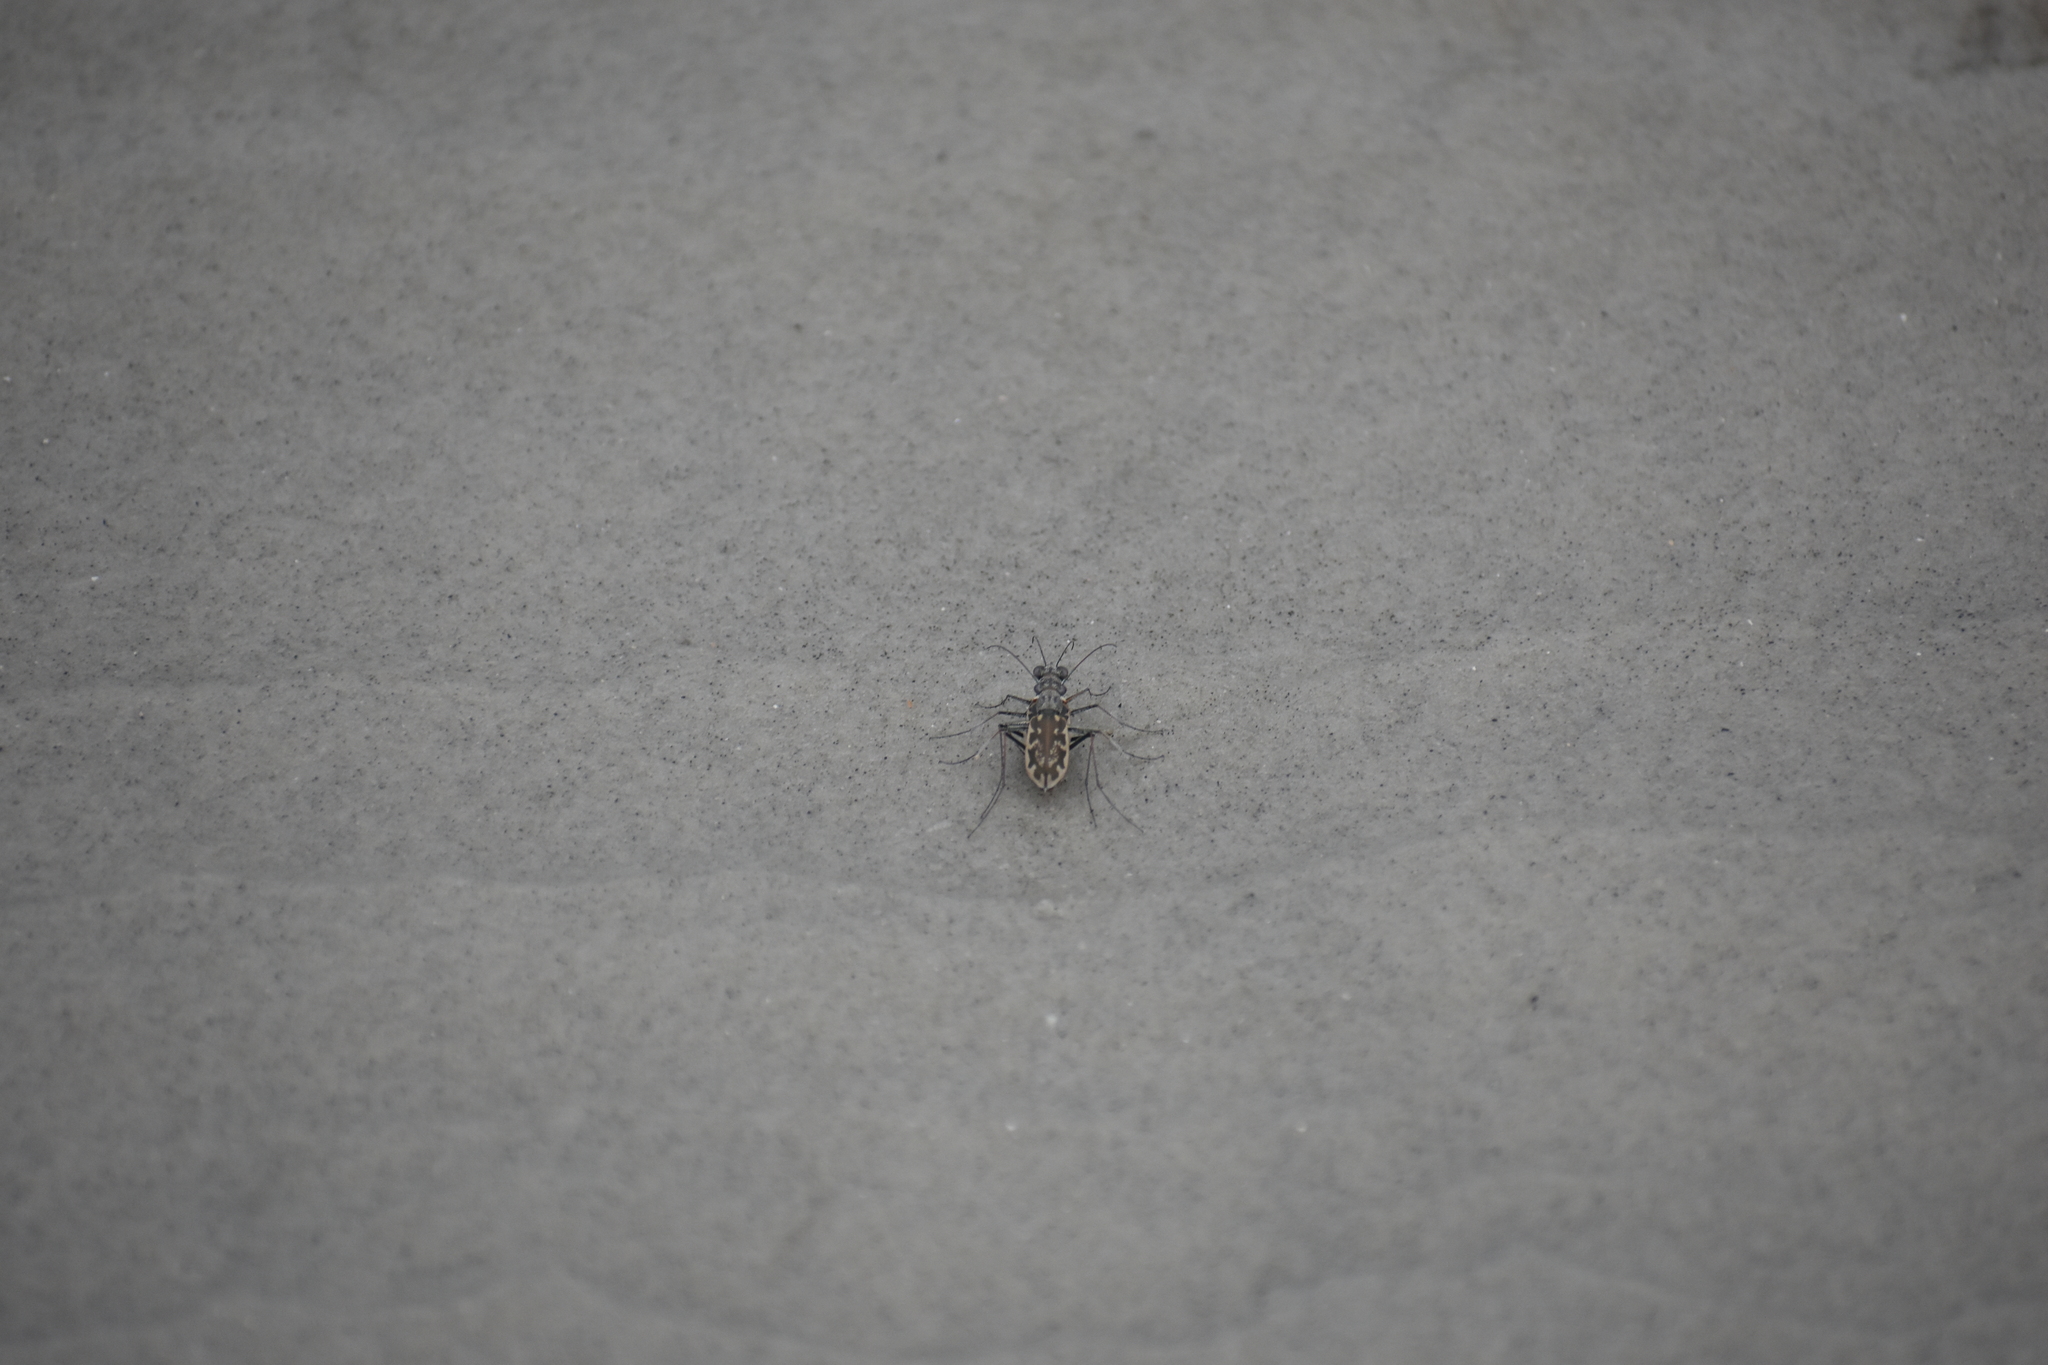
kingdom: Animalia
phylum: Arthropoda
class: Insecta
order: Coleoptera
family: Carabidae
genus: Ellipsoptera
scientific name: Ellipsoptera marginata
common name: Margined tiger beetle
